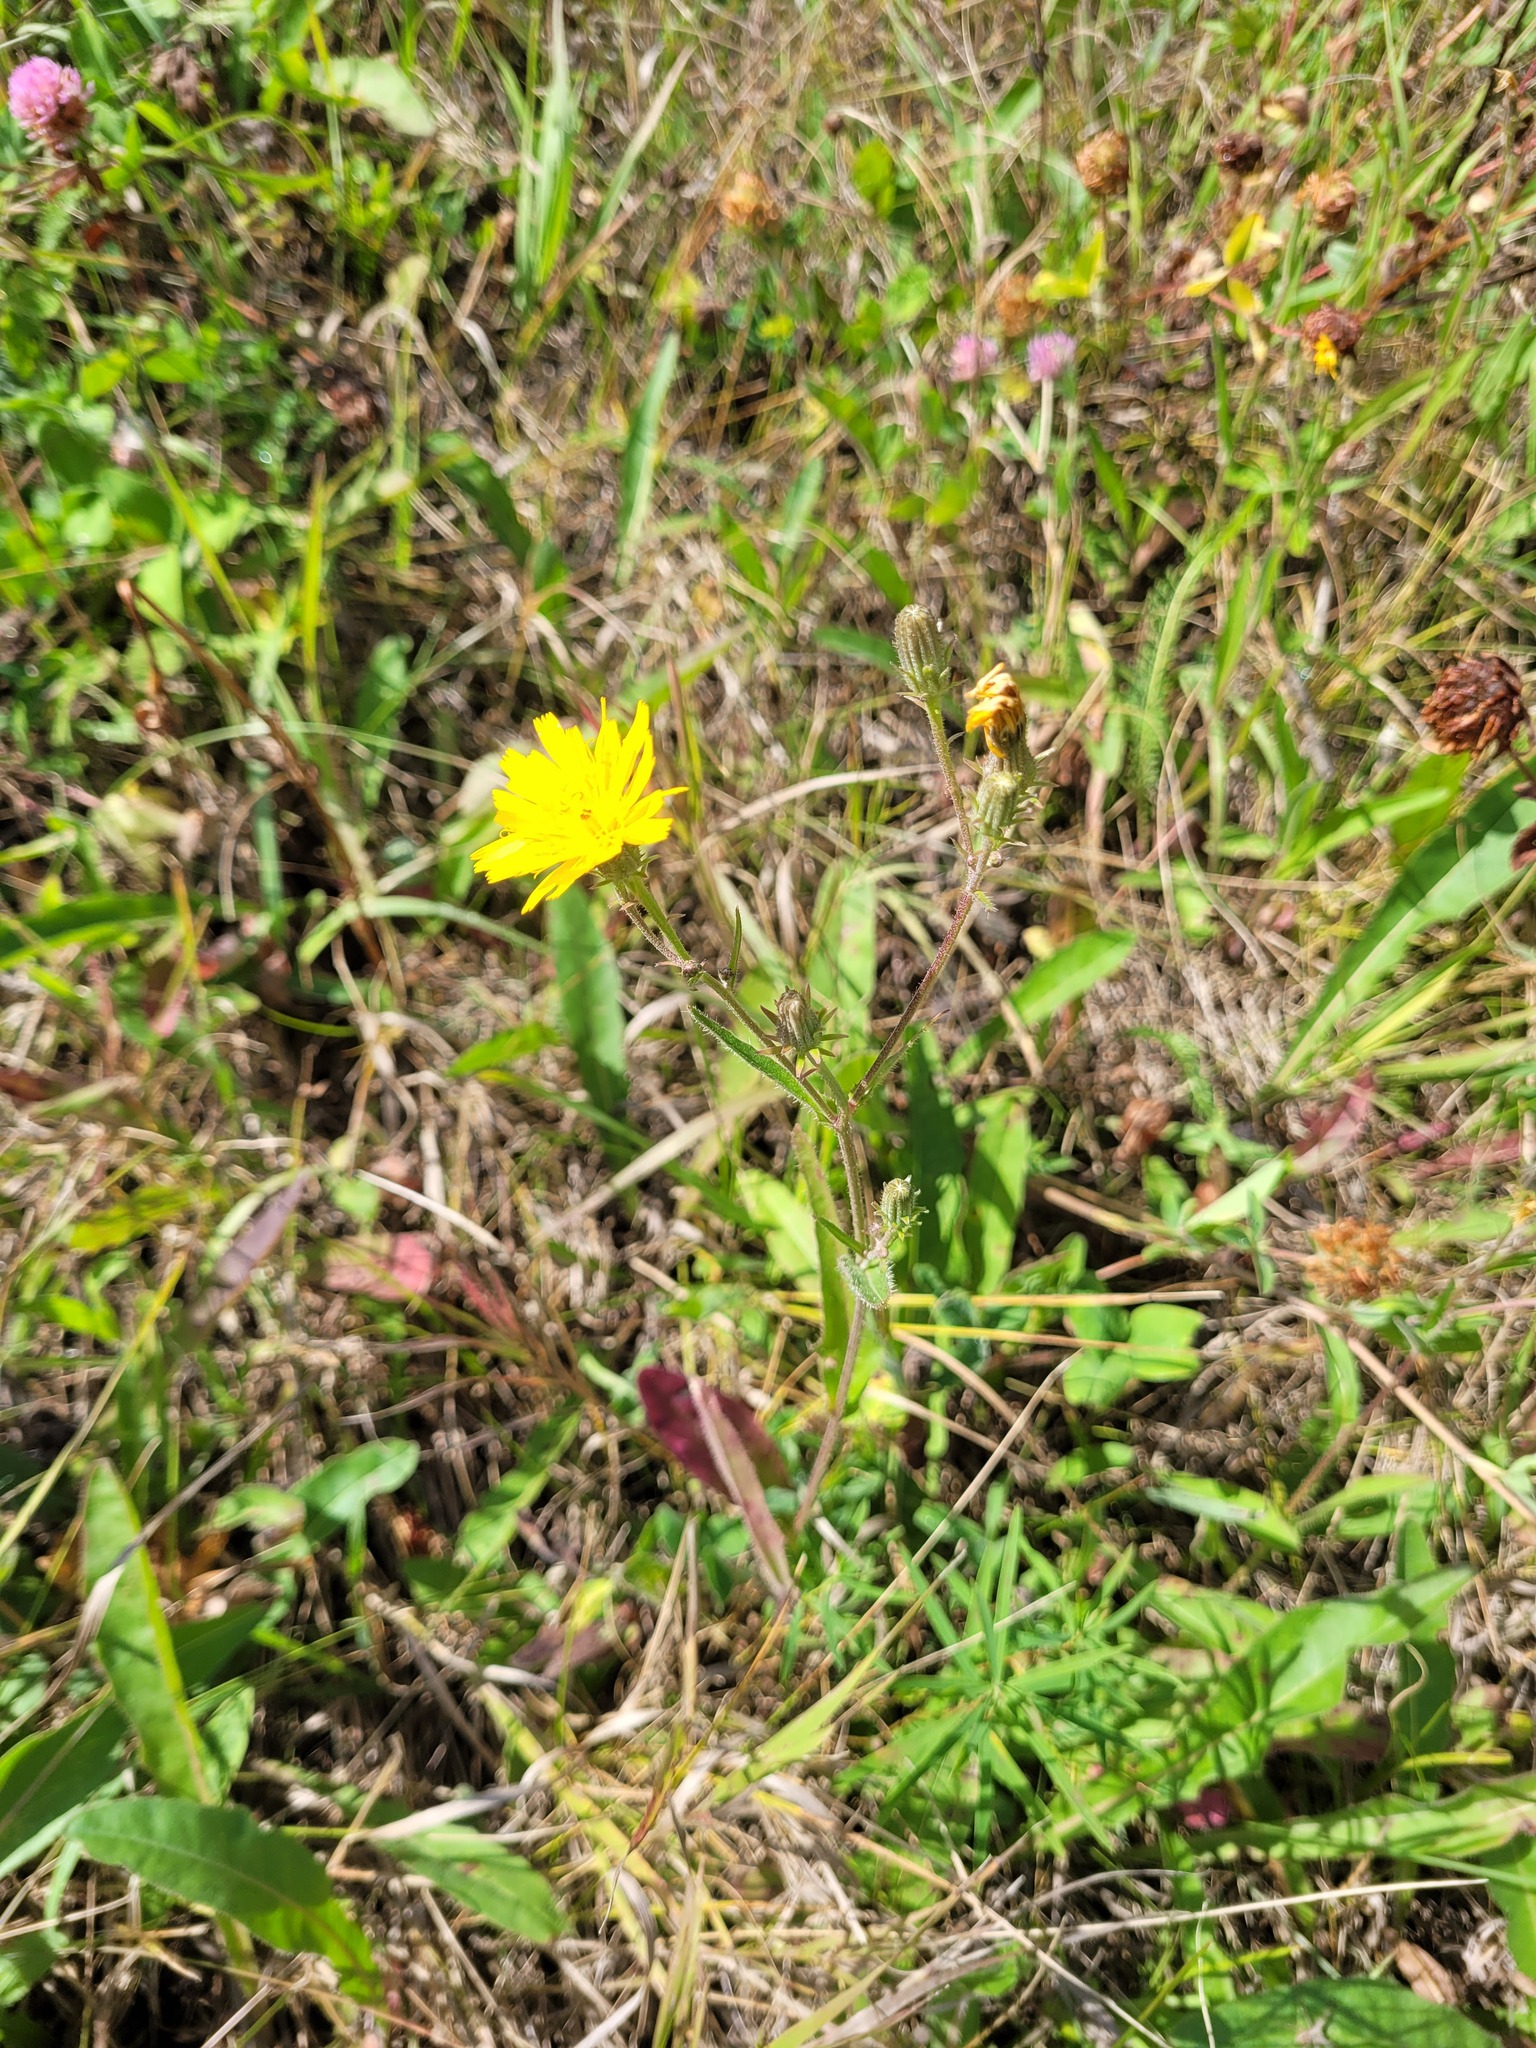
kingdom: Plantae
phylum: Tracheophyta
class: Magnoliopsida
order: Asterales
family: Asteraceae
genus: Picris
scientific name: Picris hieracioides
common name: Hawkweed oxtongue
